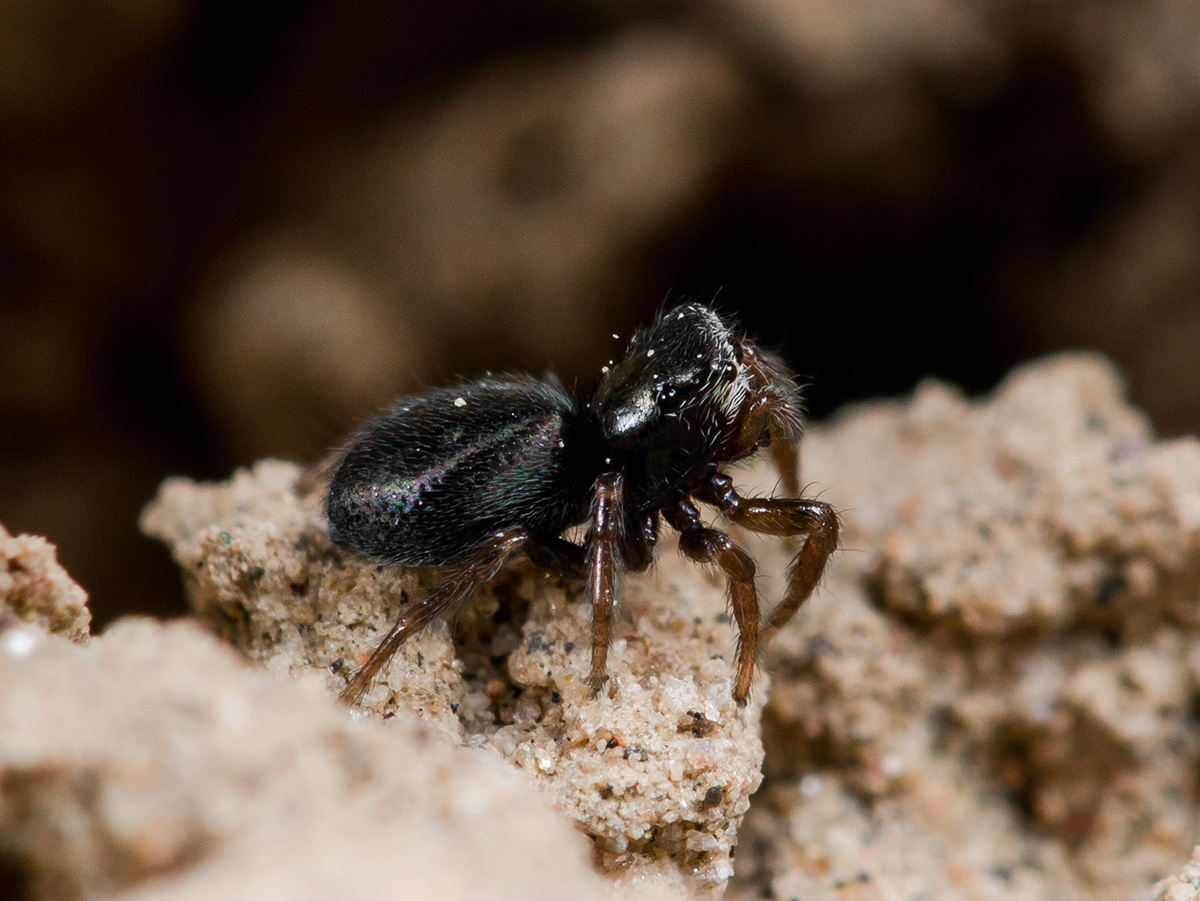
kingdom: Animalia
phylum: Arthropoda
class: Arachnida
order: Araneae
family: Salticidae
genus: Chalcoscirtus
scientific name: Chalcoscirtus nigritus
